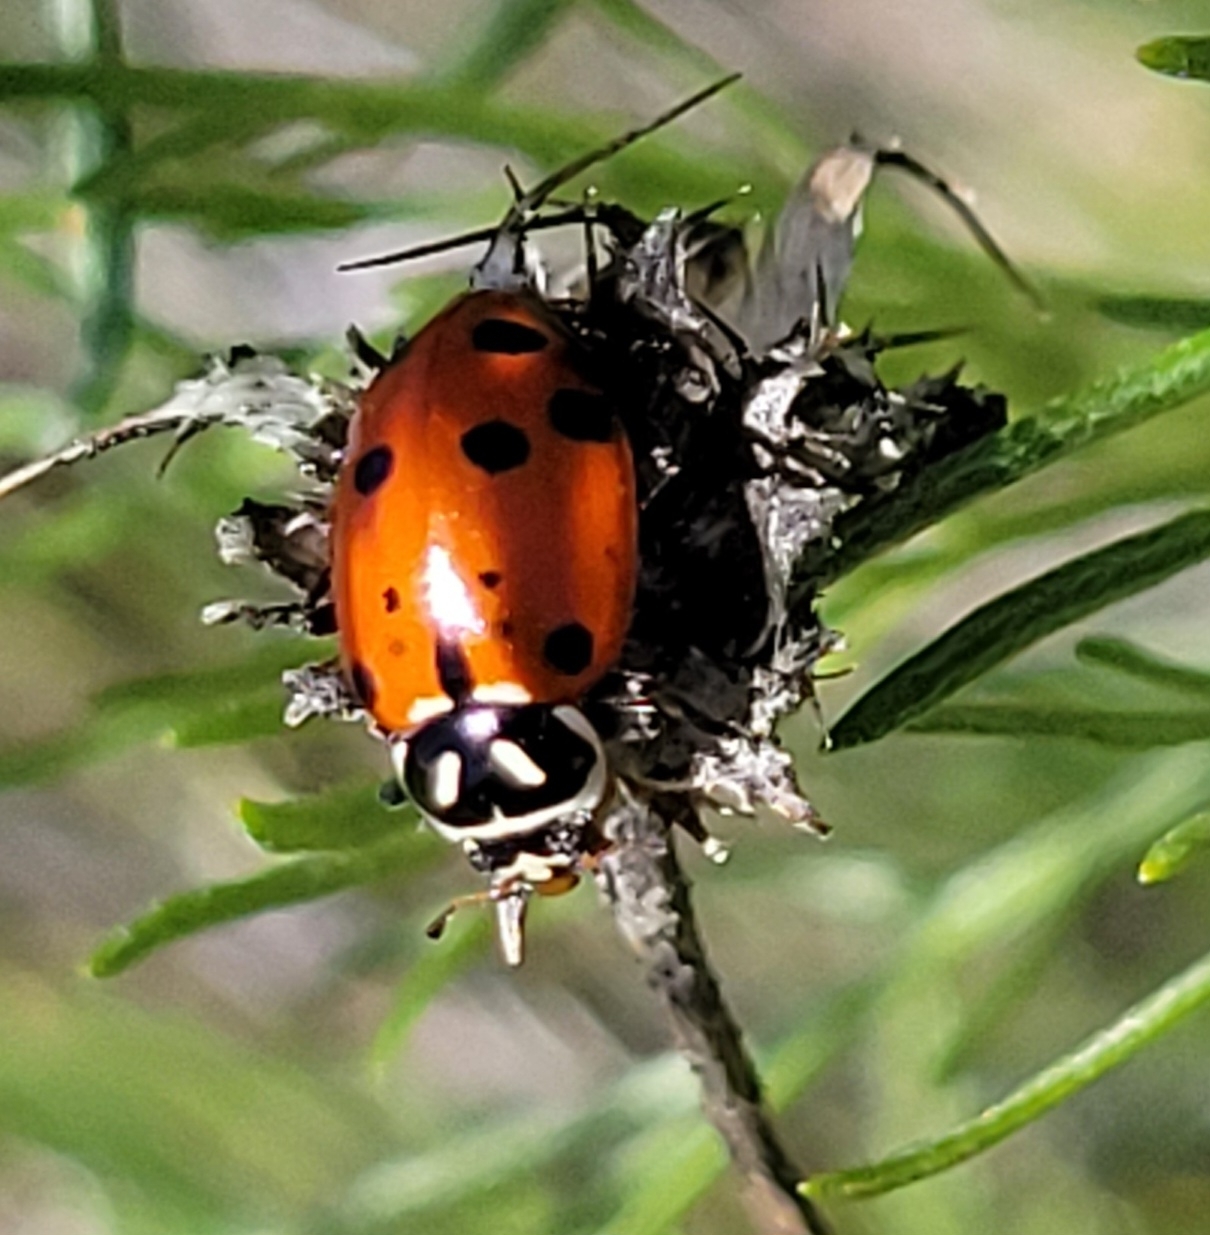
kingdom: Animalia
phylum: Arthropoda
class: Insecta
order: Coleoptera
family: Coccinellidae
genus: Hippodamia
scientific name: Hippodamia convergens
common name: Convergent lady beetle
